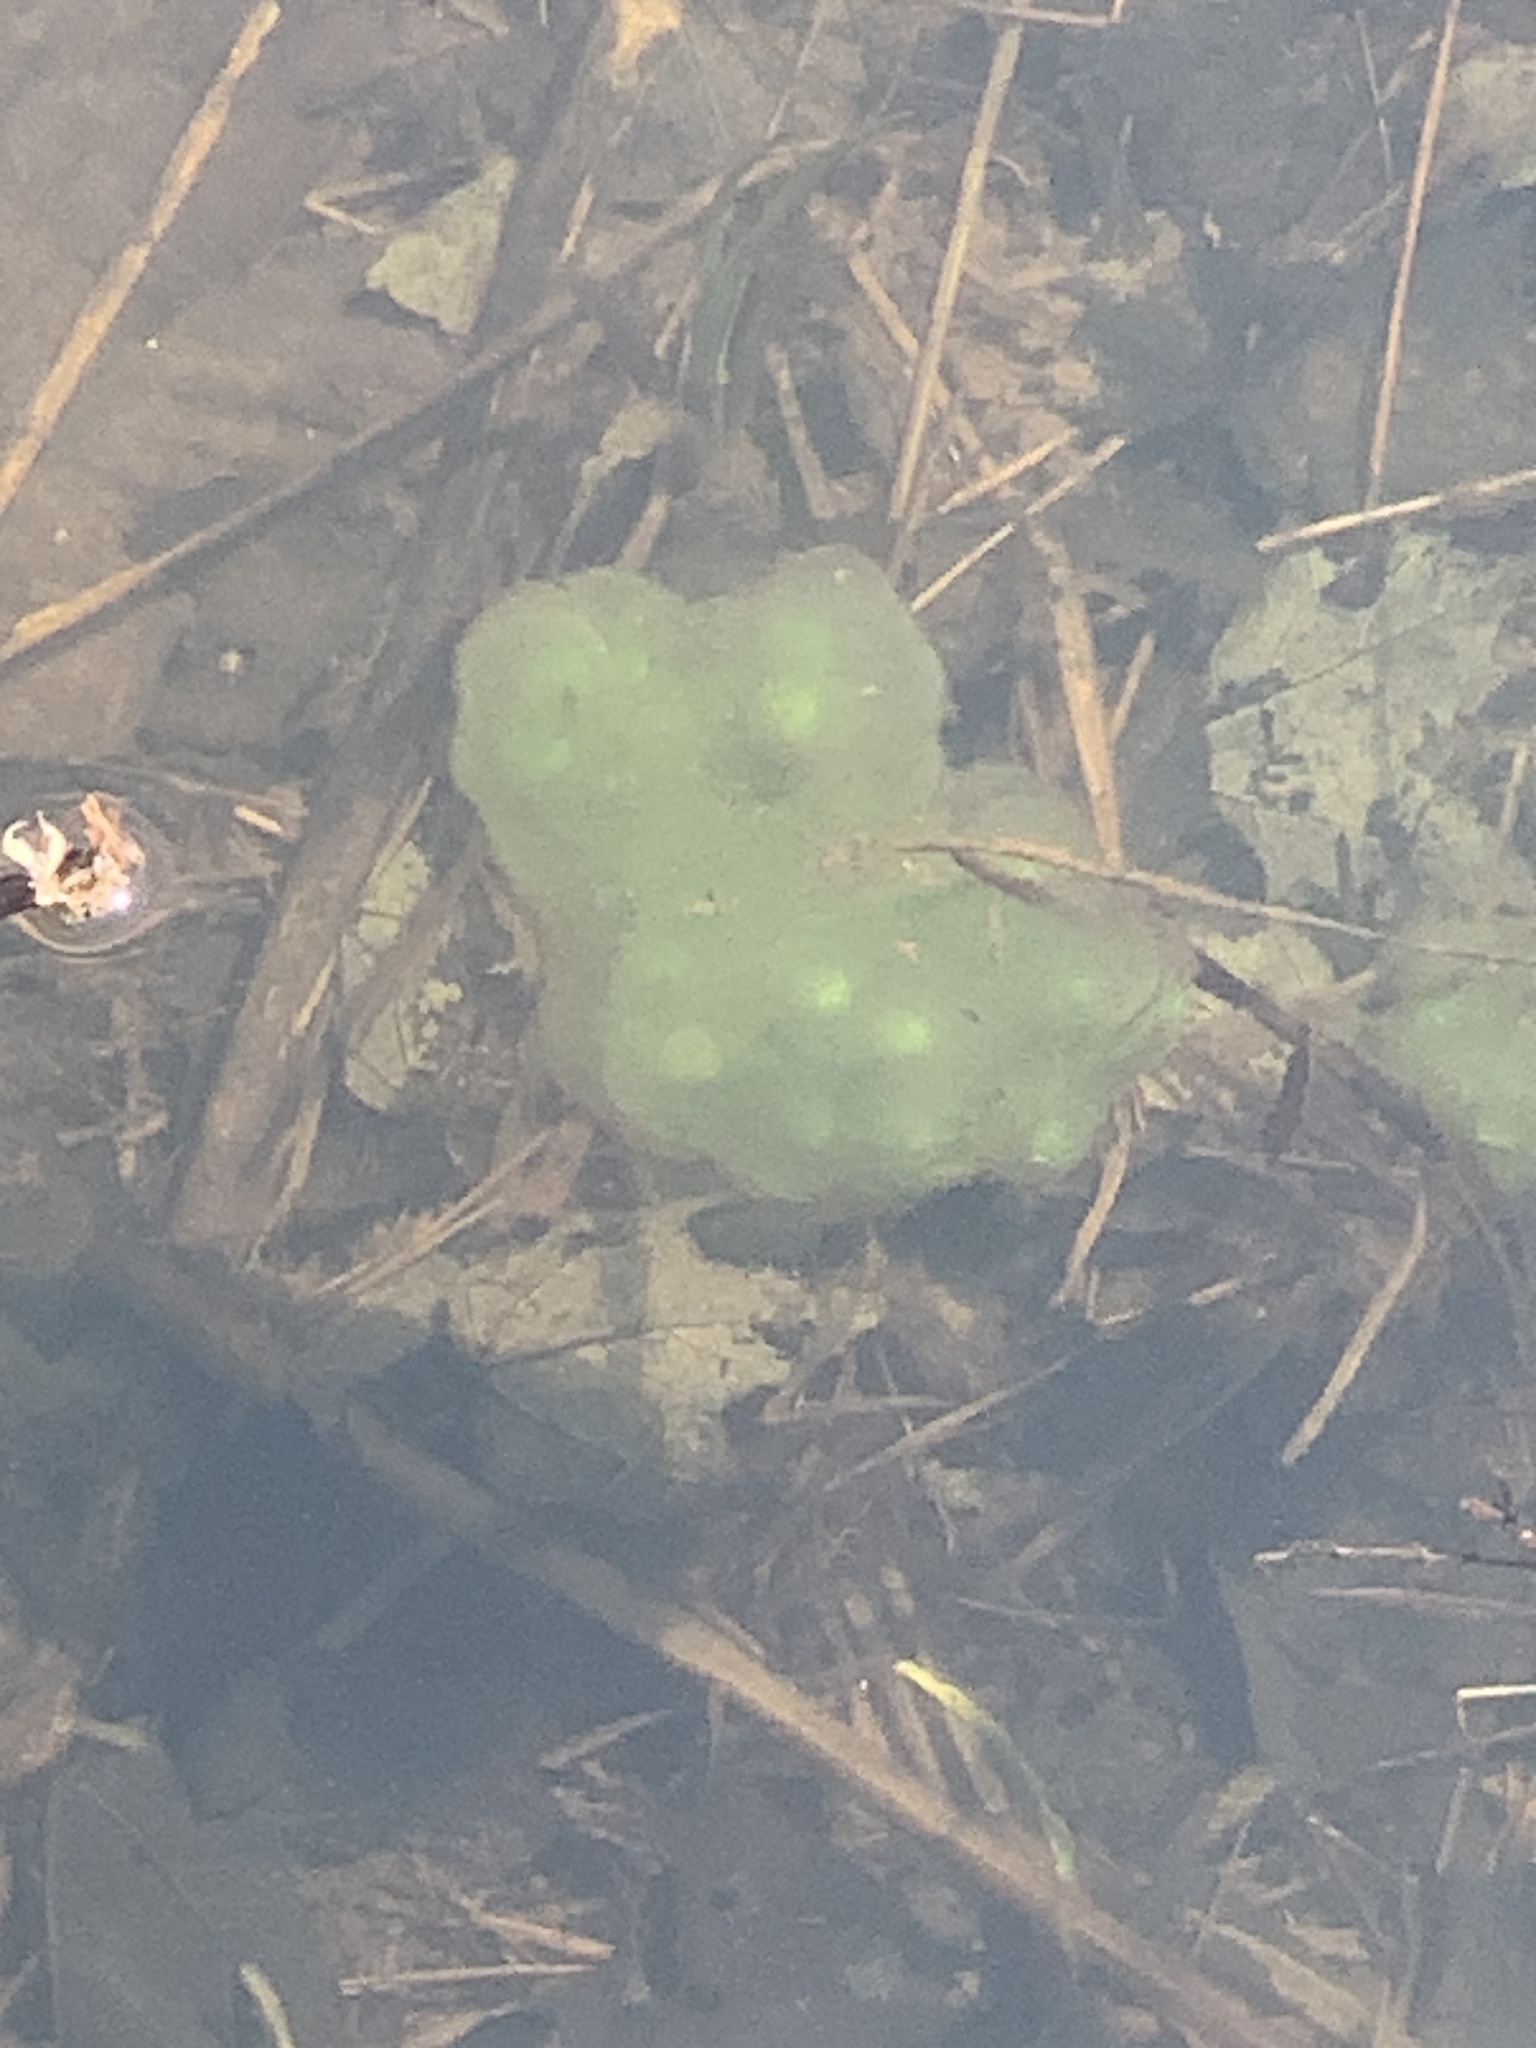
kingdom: Animalia
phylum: Chordata
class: Amphibia
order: Caudata
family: Ambystomatidae
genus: Ambystoma
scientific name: Ambystoma maculatum
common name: Spotted salamander
